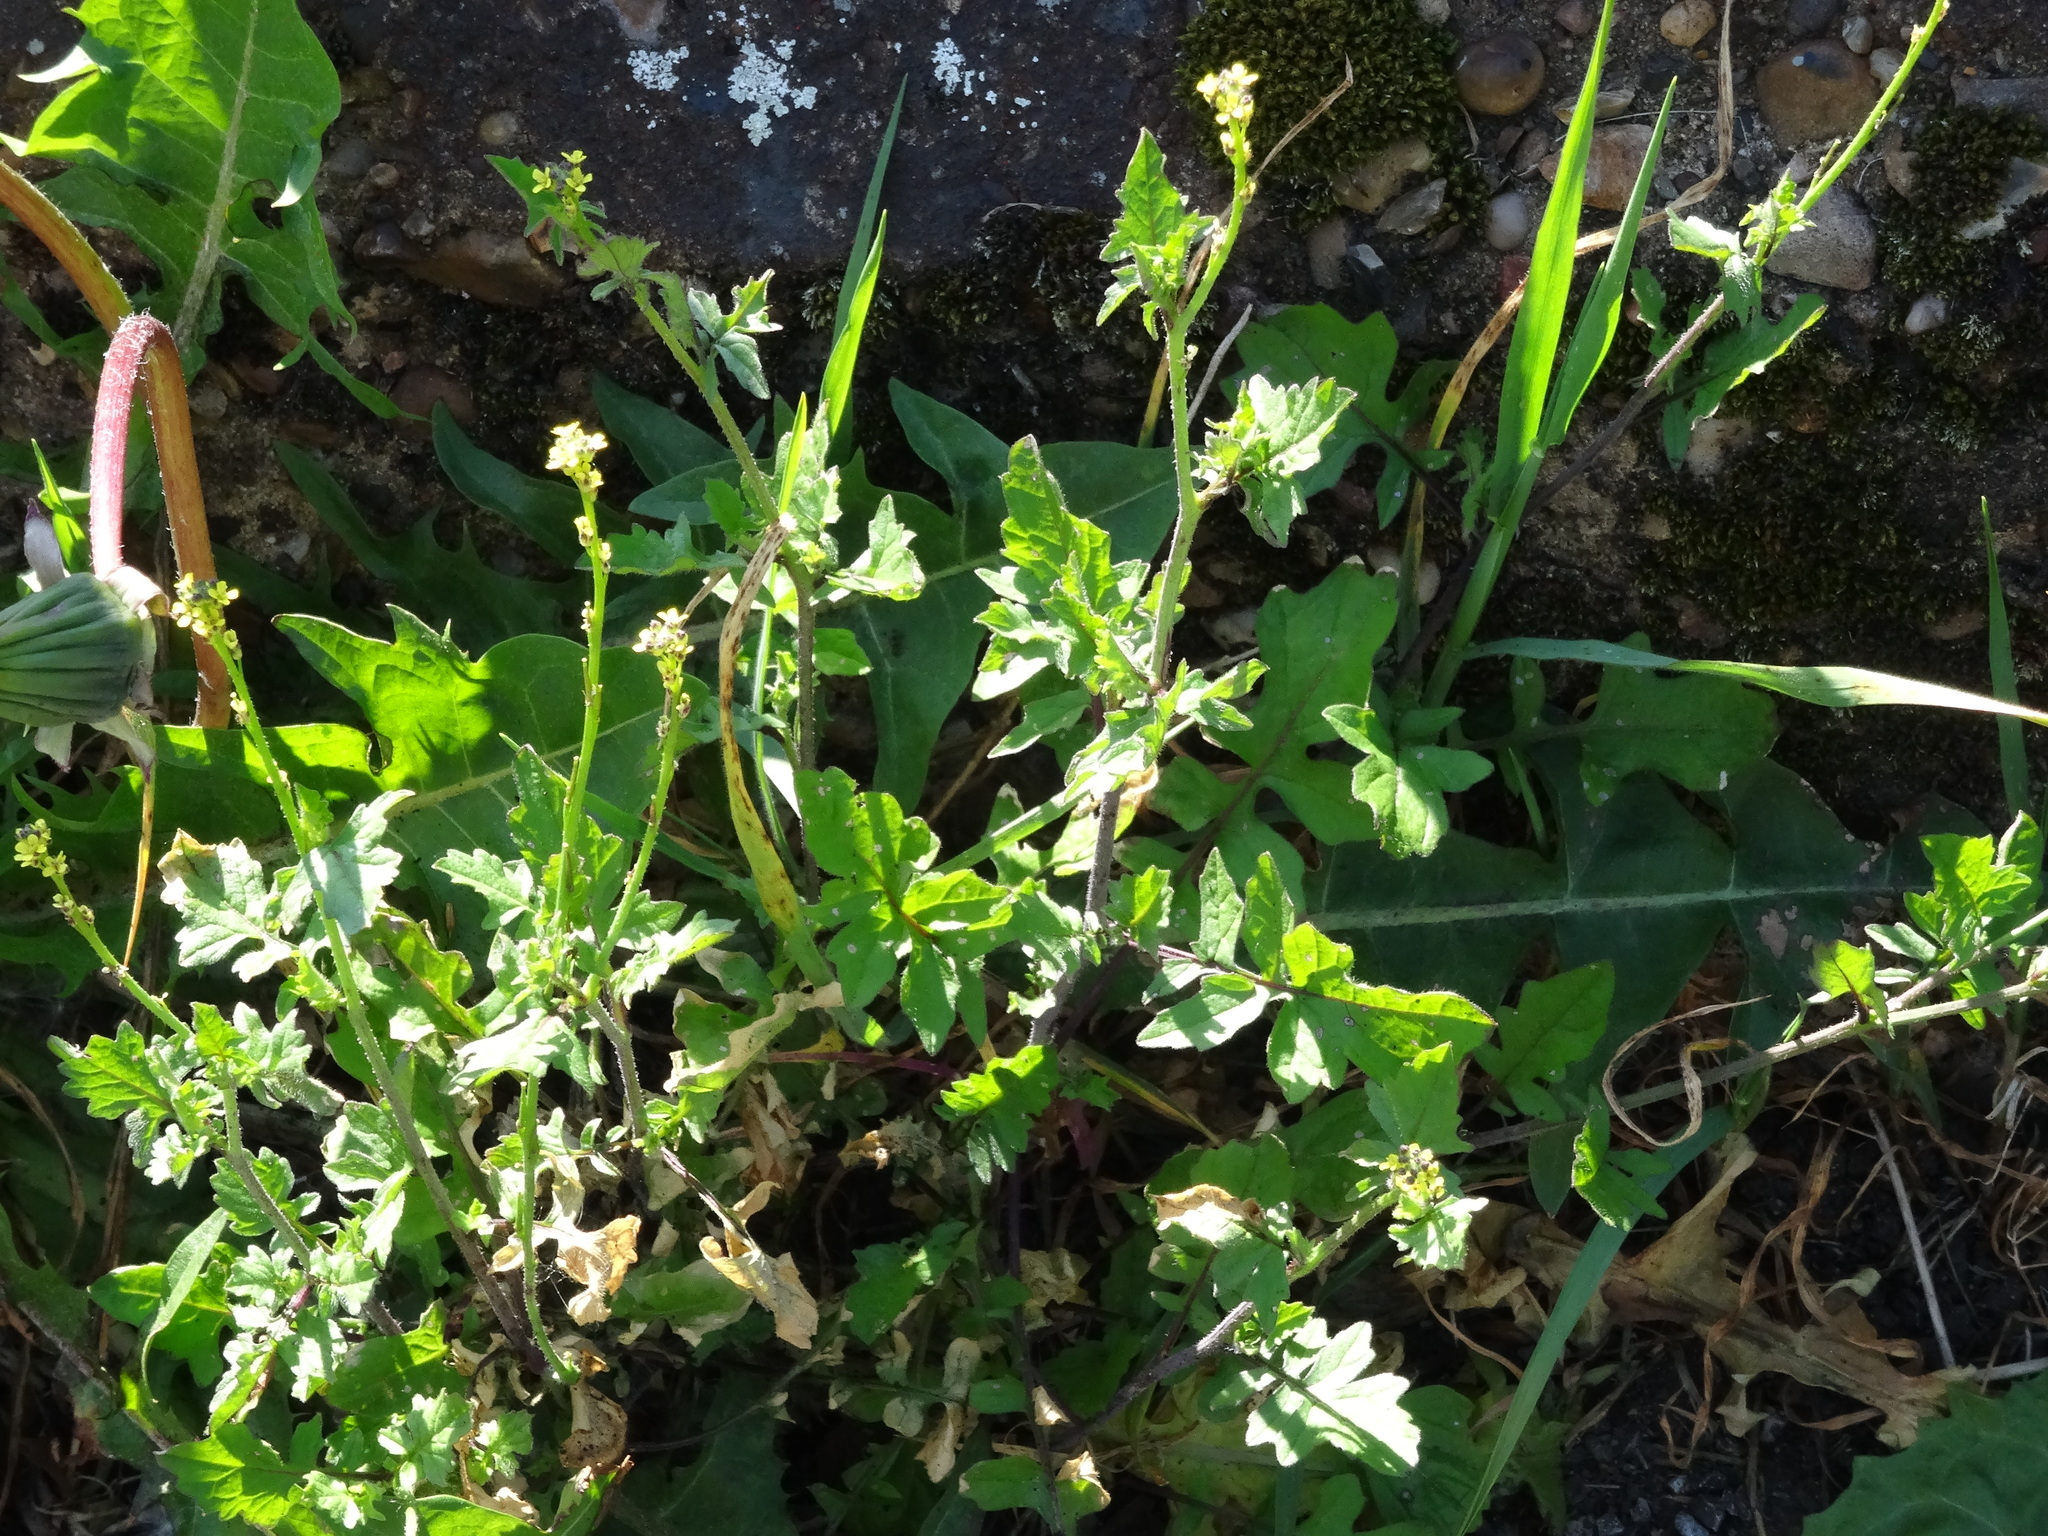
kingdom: Plantae
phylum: Tracheophyta
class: Magnoliopsida
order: Brassicales
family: Brassicaceae
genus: Sisymbrium
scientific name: Sisymbrium officinale
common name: Hedge mustard
